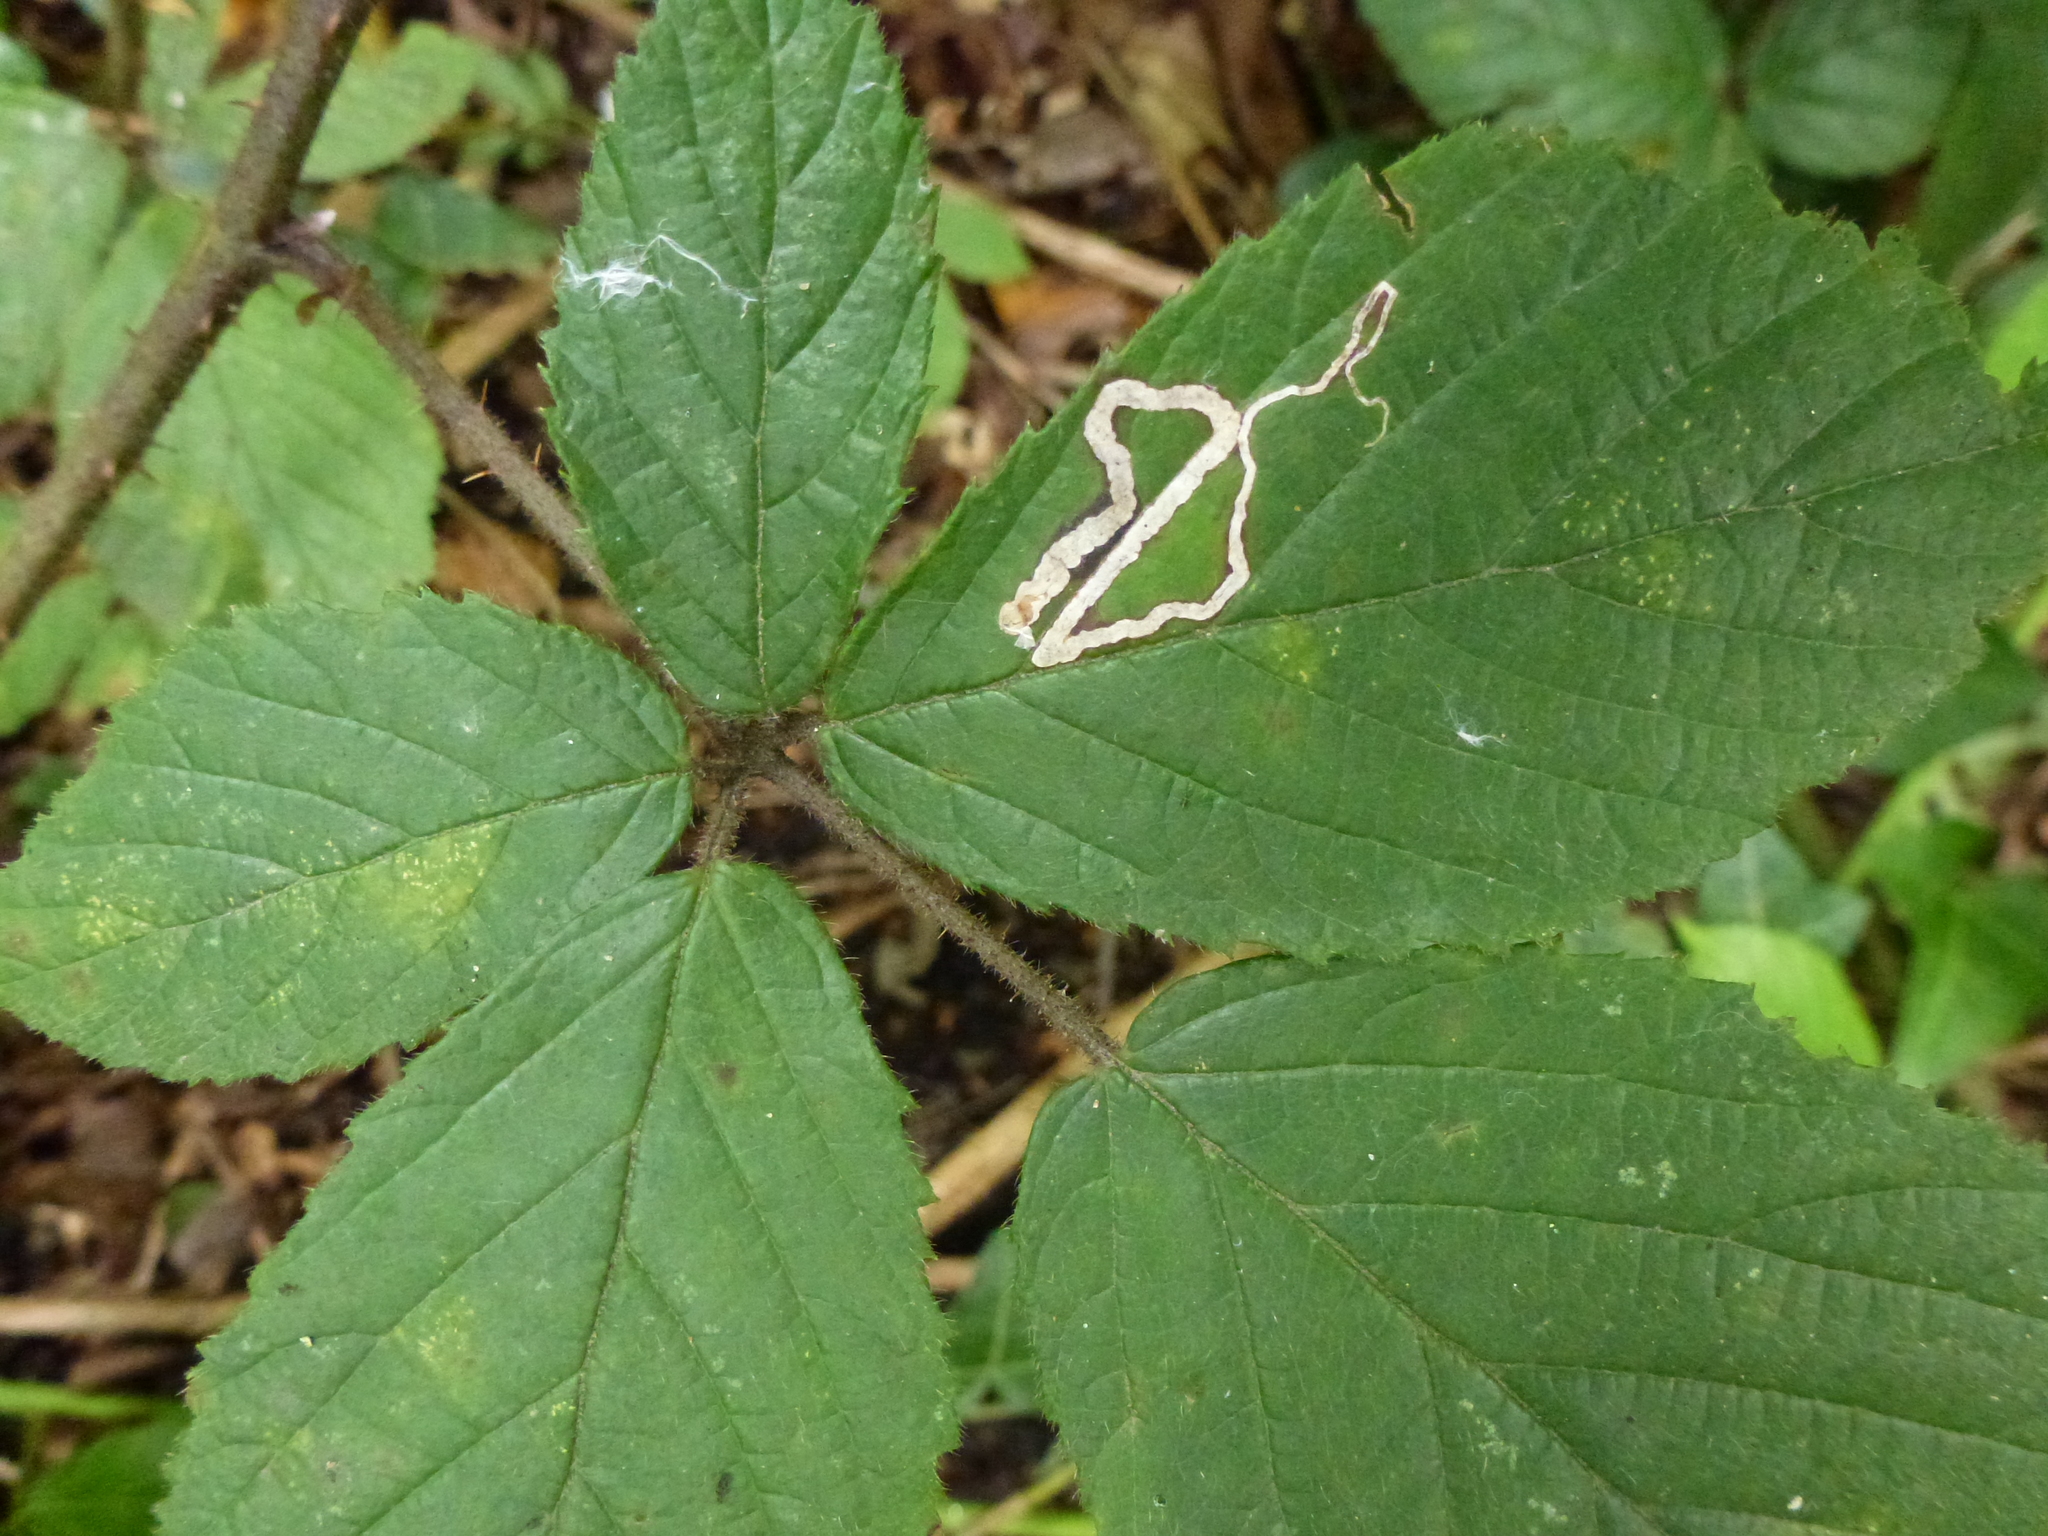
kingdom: Animalia
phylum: Arthropoda
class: Insecta
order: Lepidoptera
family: Nepticulidae
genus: Stigmella
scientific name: Stigmella aurella
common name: Golden pigmy
